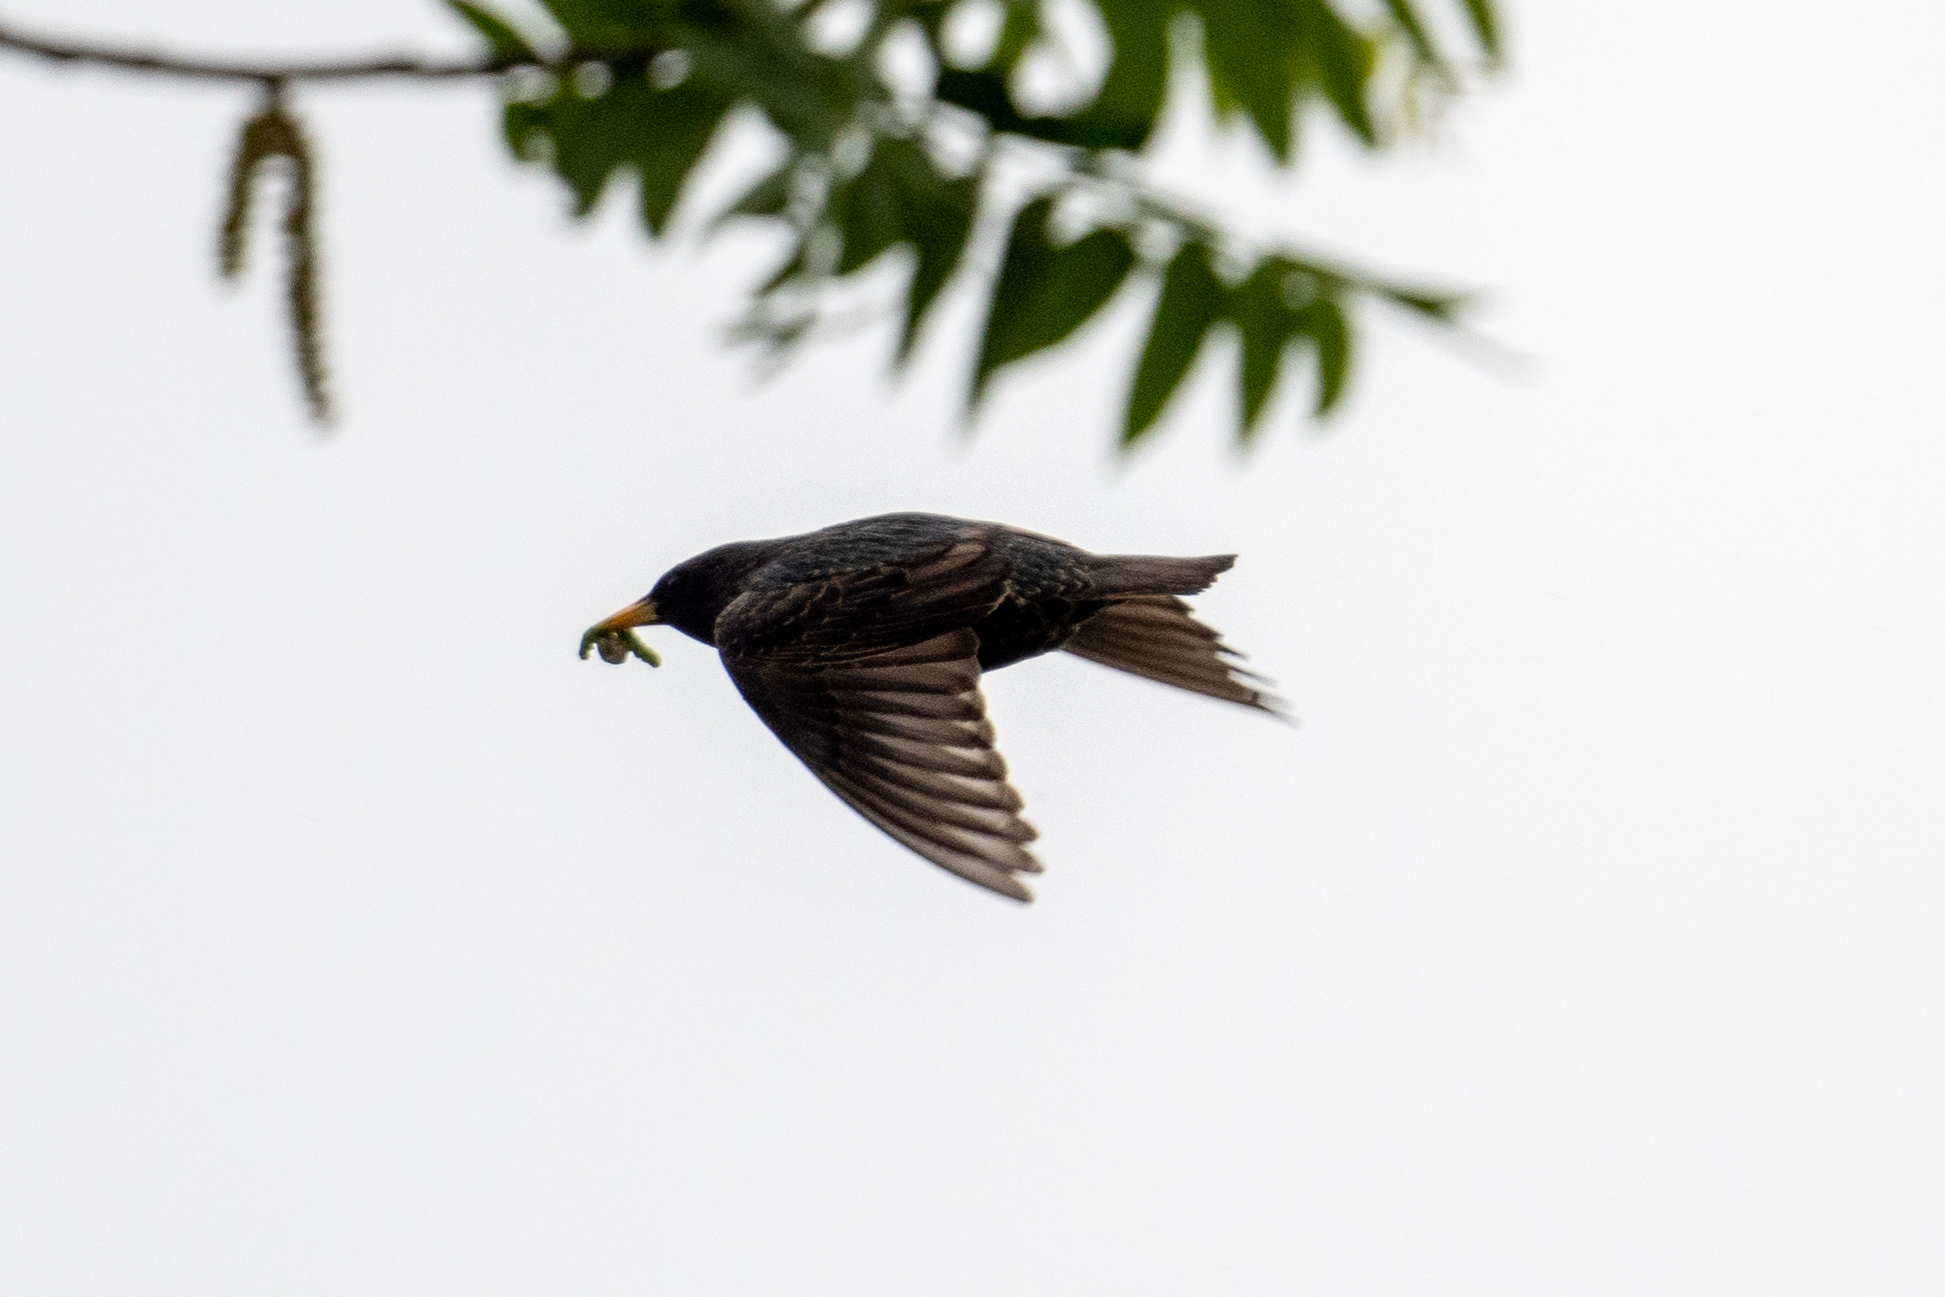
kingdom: Animalia
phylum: Chordata
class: Aves
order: Passeriformes
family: Sturnidae
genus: Sturnus
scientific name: Sturnus vulgaris
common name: Common starling
